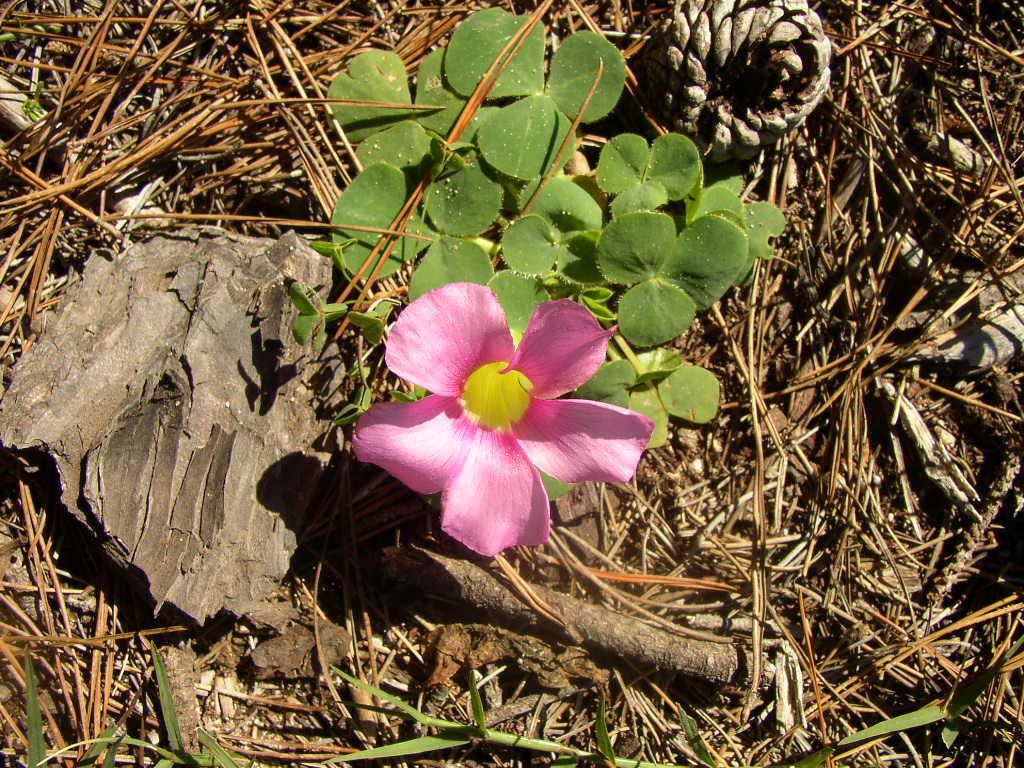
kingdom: Plantae
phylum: Tracheophyta
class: Magnoliopsida
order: Oxalidales
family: Oxalidaceae
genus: Oxalis
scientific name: Oxalis purpurea
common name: Purple woodsorrel
